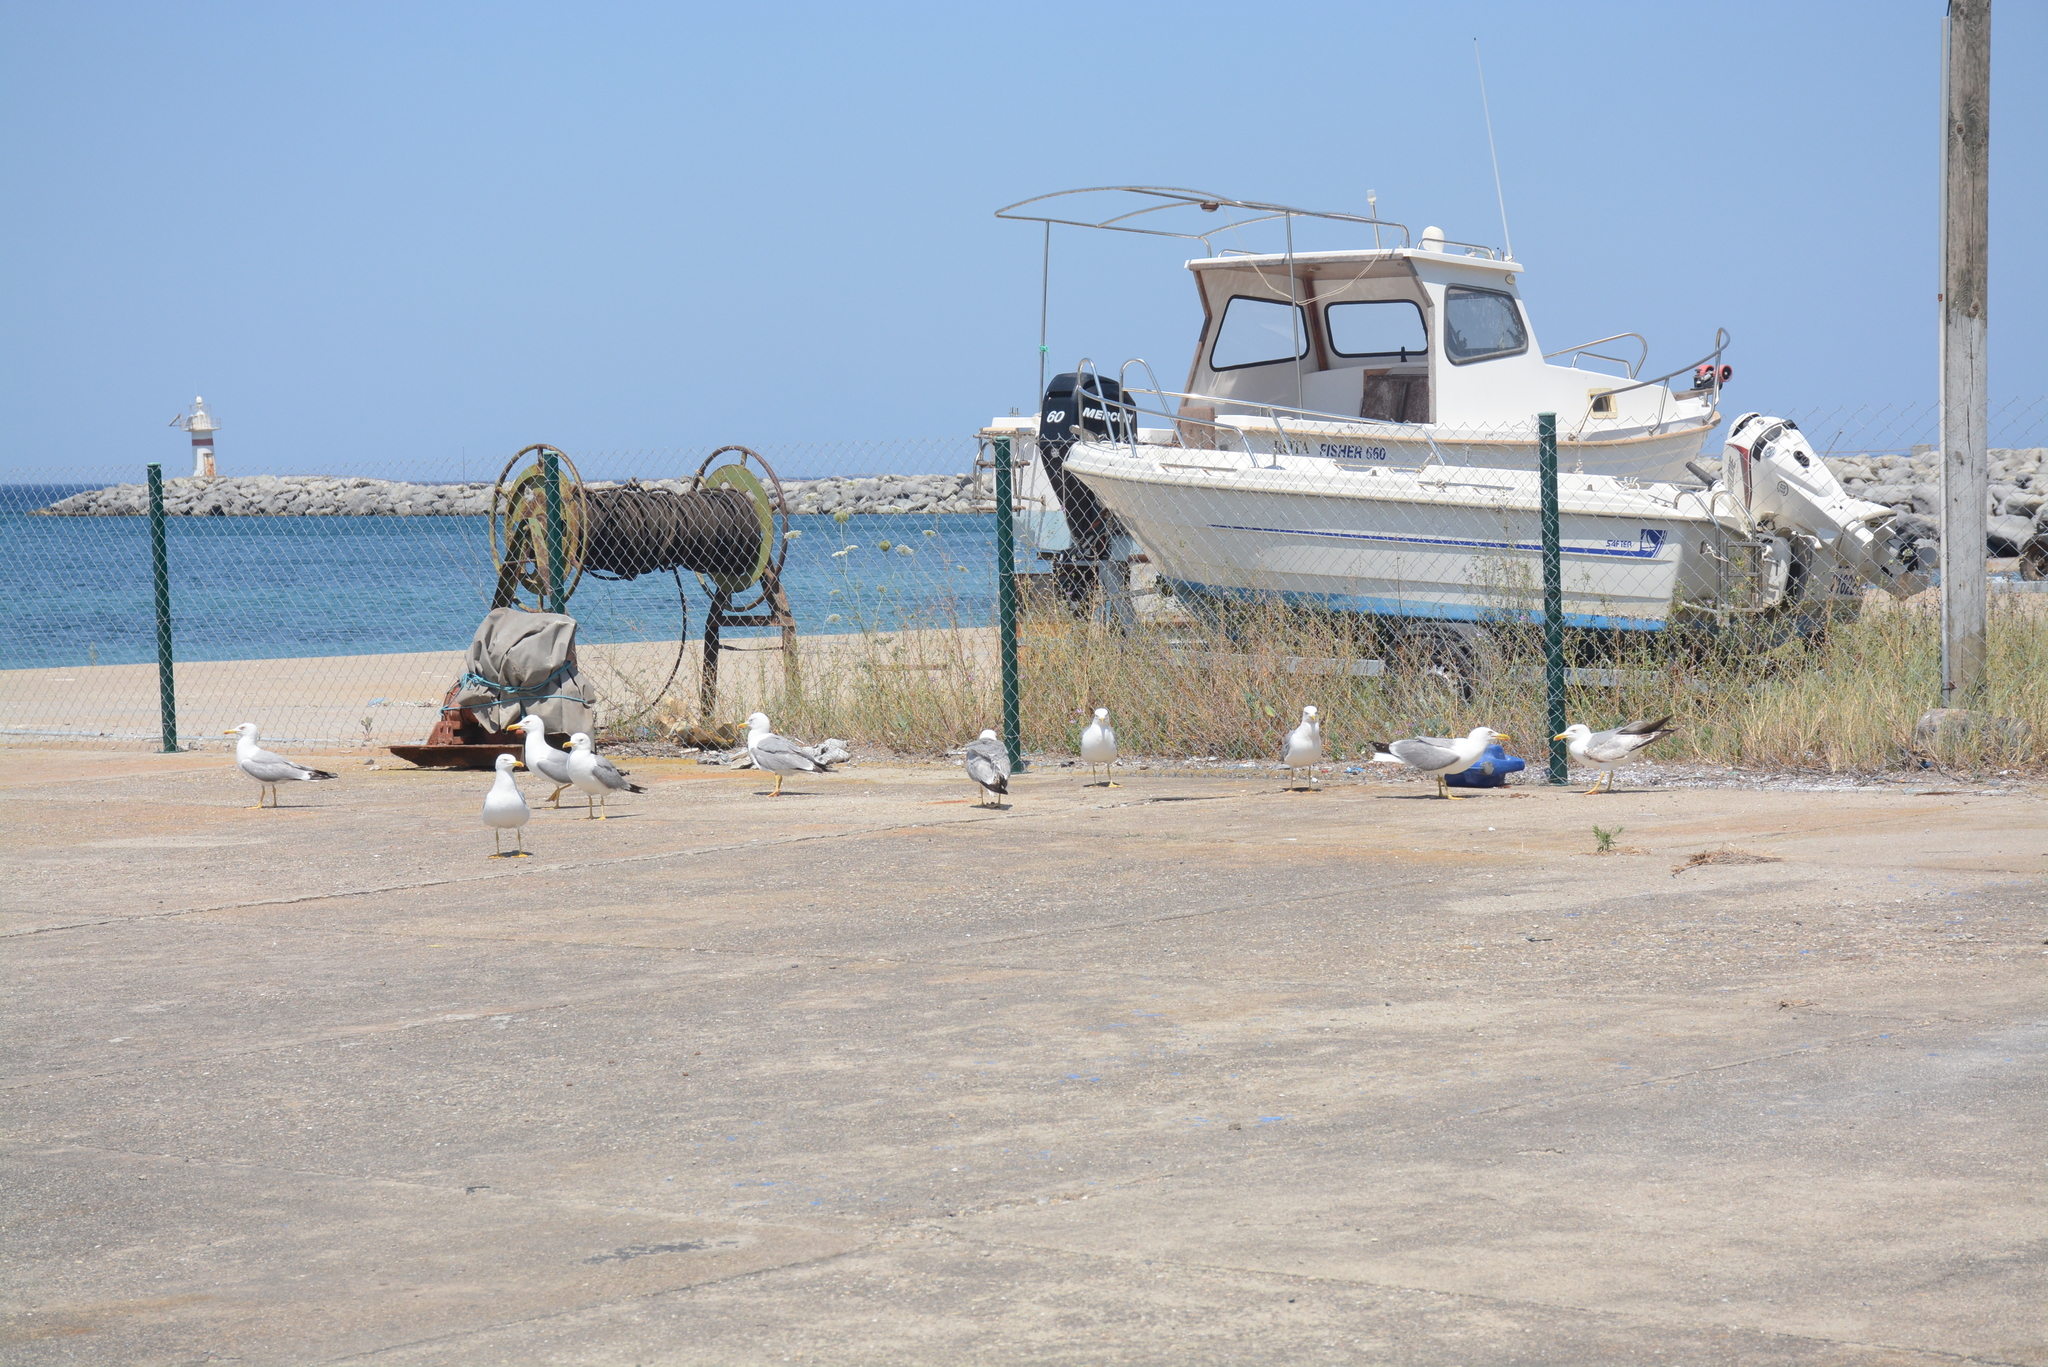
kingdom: Animalia
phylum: Chordata
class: Aves
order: Charadriiformes
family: Laridae
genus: Larus
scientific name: Larus michahellis
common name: Yellow-legged gull
